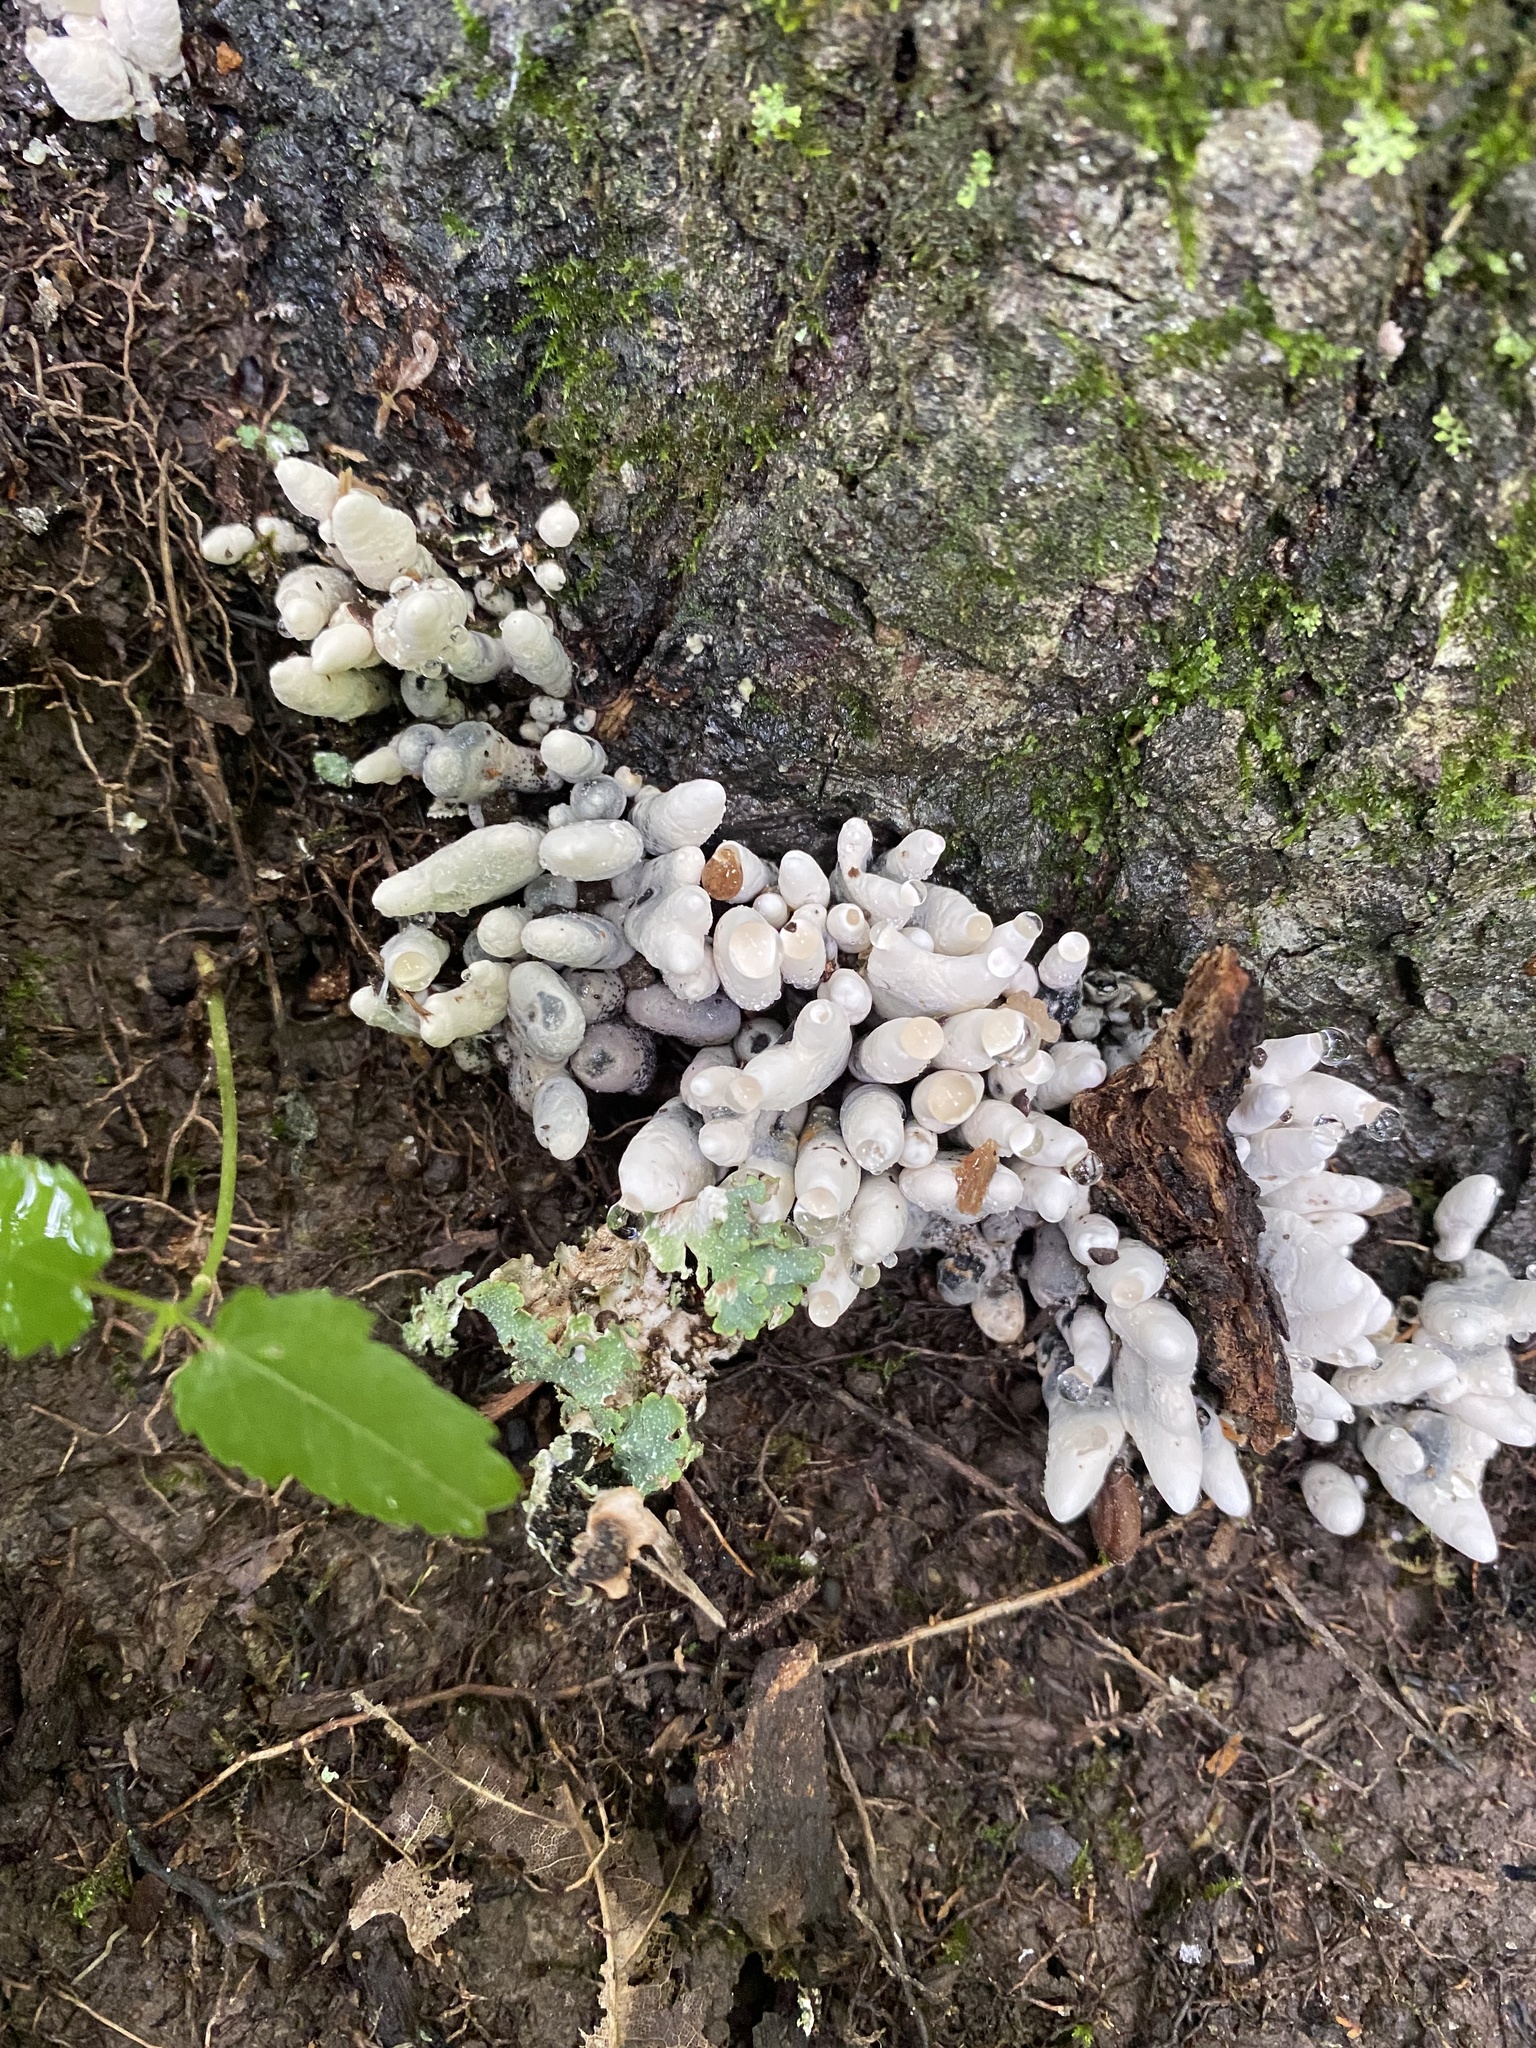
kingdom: Fungi
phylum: Ascomycota
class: Sordariomycetes
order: Xylariales
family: Xylariaceae
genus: Xylaria
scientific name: Xylaria polymorpha
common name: Dead man's fingers
